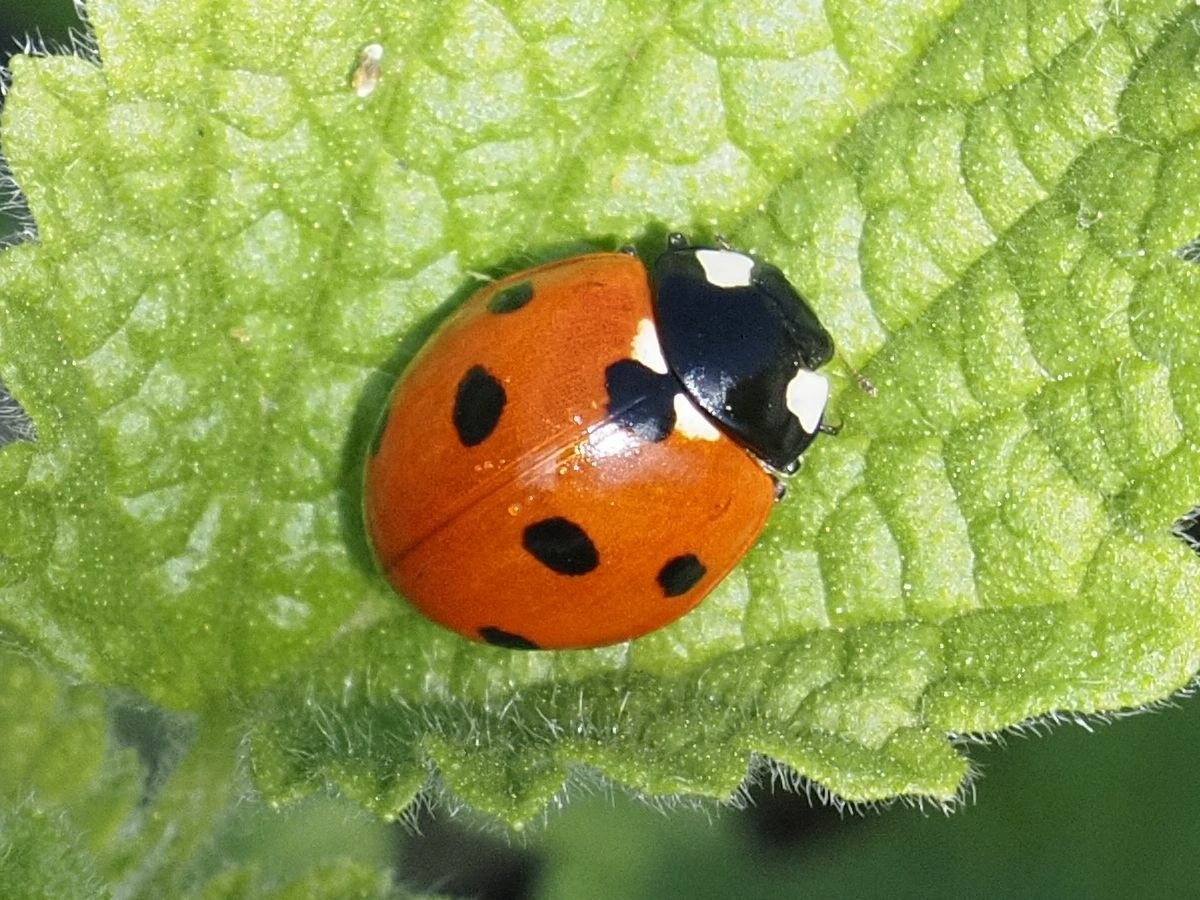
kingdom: Animalia
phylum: Arthropoda
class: Insecta
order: Coleoptera
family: Coccinellidae
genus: Coccinella
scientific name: Coccinella septempunctata
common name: Sevenspotted lady beetle
